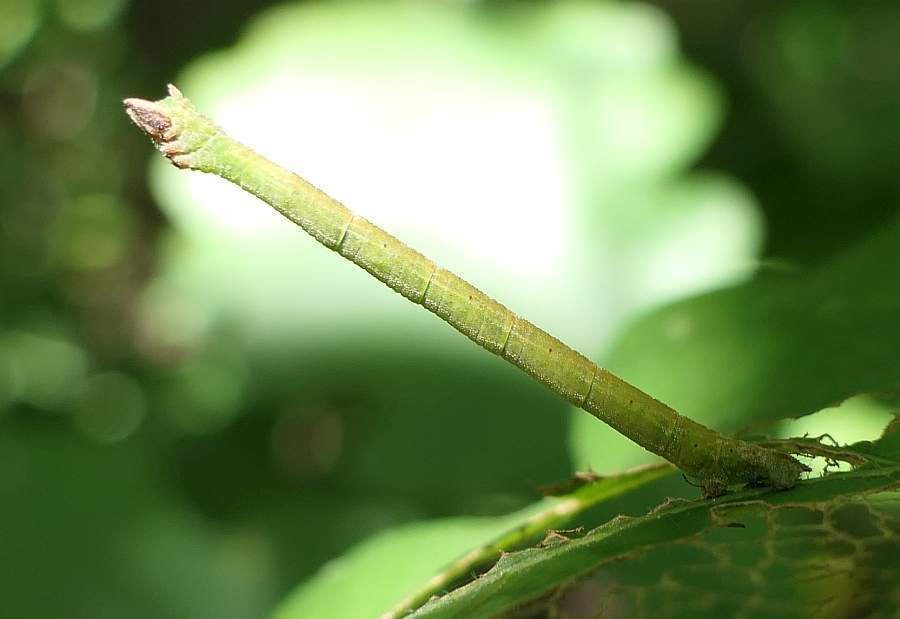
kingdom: Animalia
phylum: Arthropoda
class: Insecta
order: Lepidoptera
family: Geometridae
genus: Thalera
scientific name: Thalera pistasciaria
